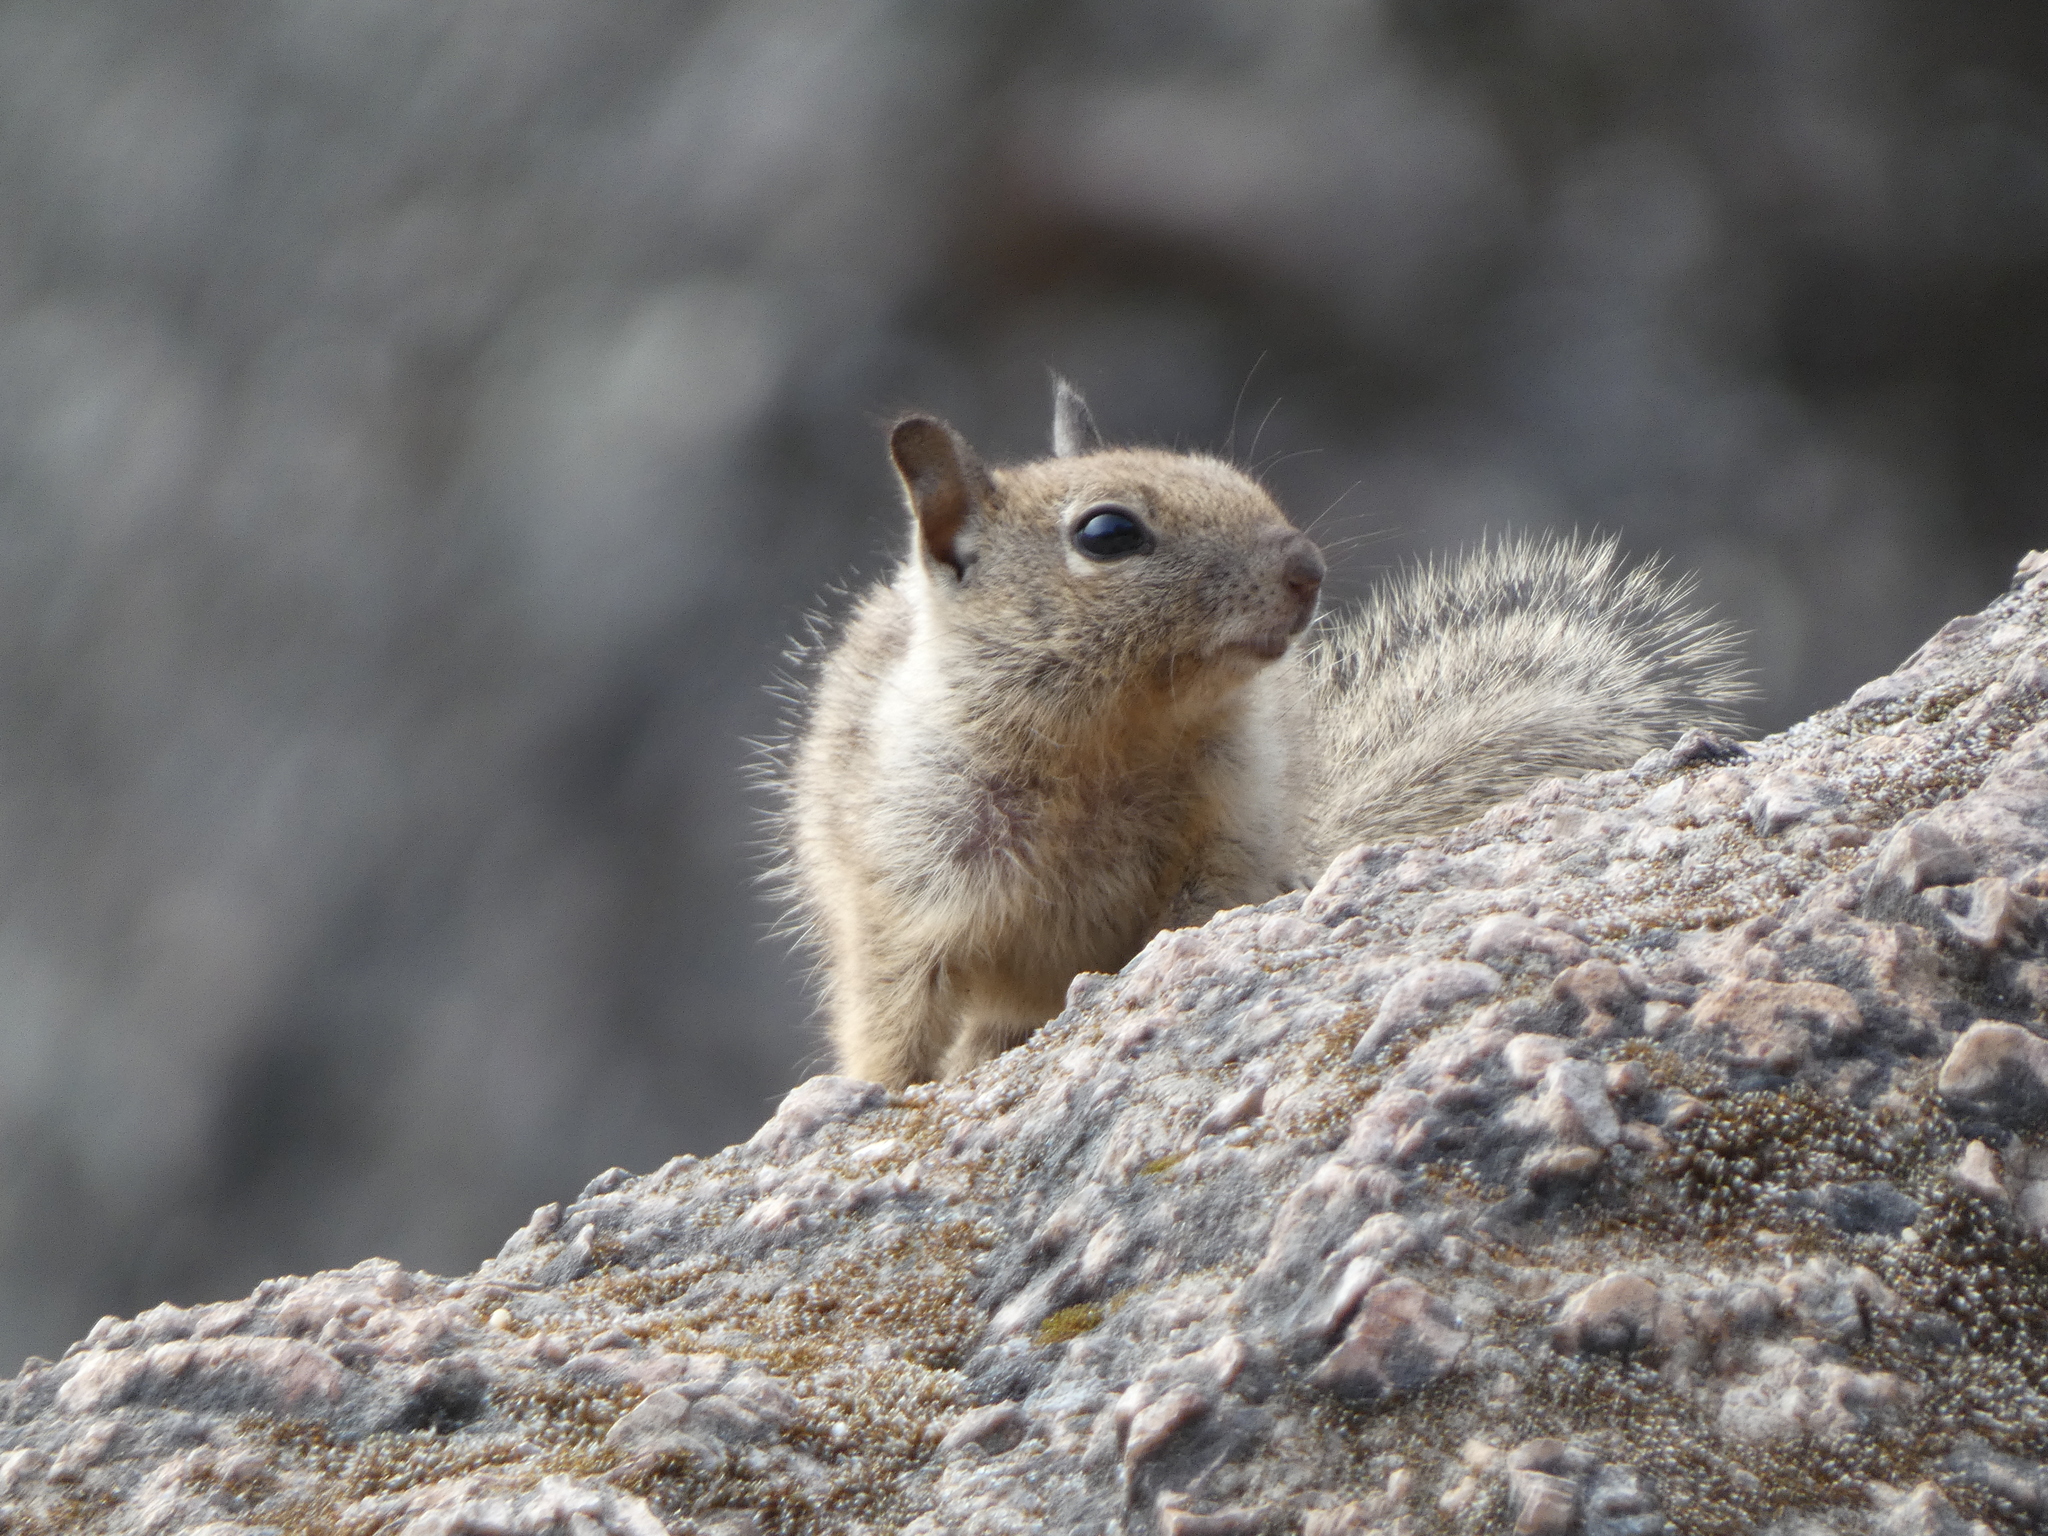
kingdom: Animalia
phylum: Chordata
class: Mammalia
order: Rodentia
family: Sciuridae
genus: Otospermophilus
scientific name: Otospermophilus beecheyi
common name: California ground squirrel
